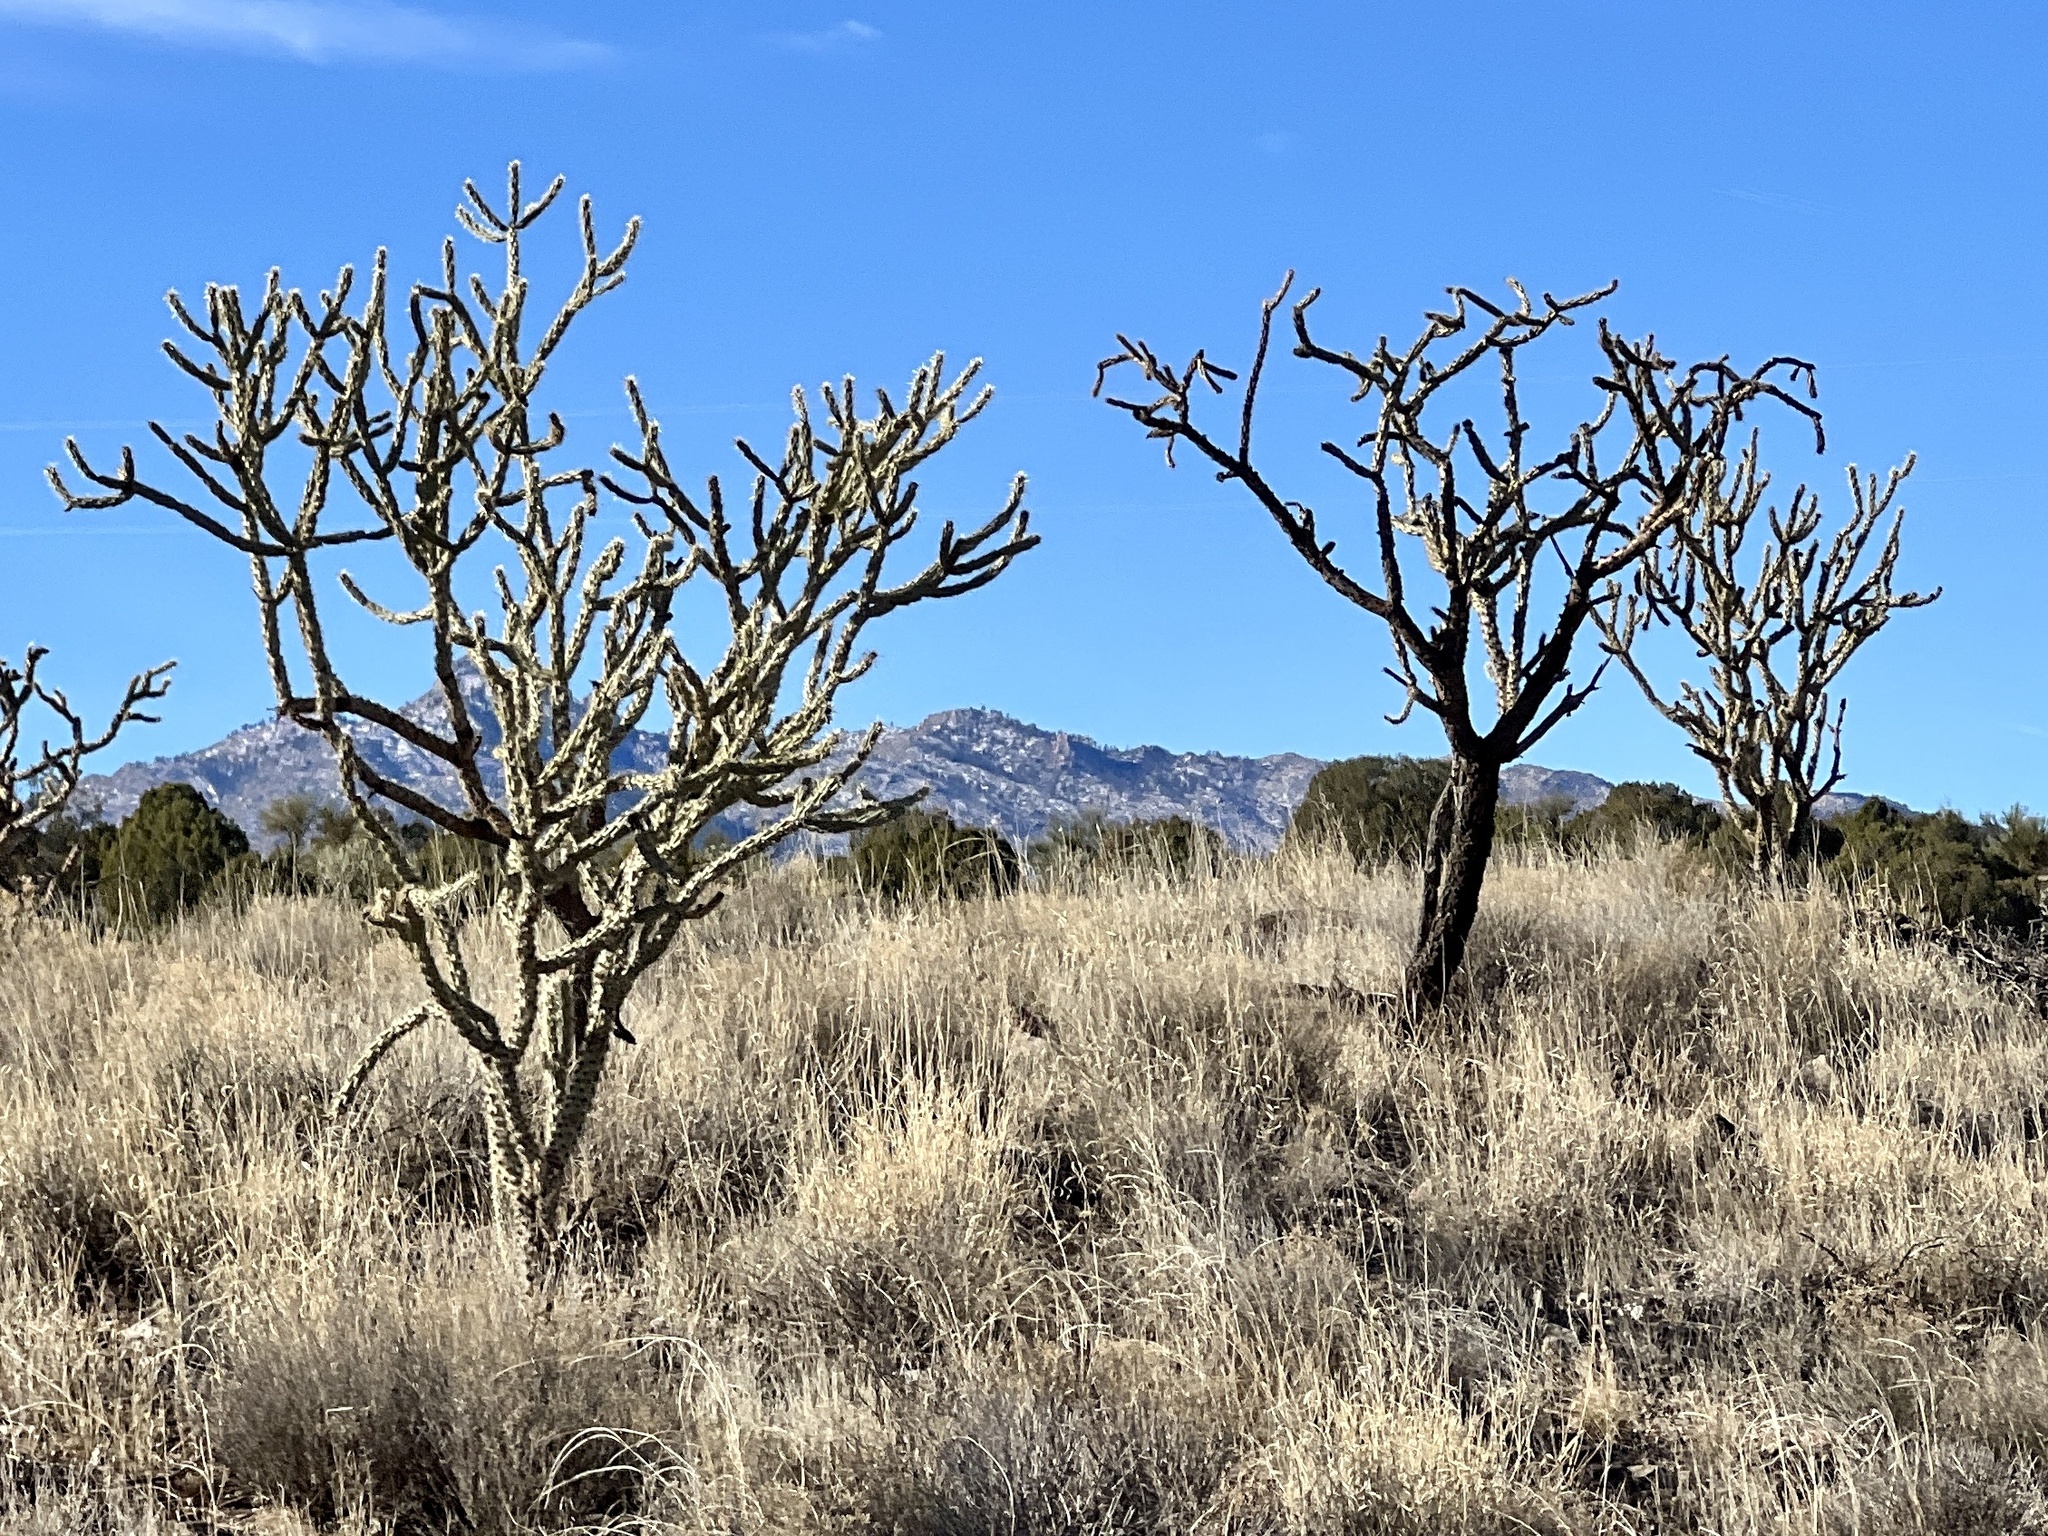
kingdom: Plantae
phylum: Tracheophyta
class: Magnoliopsida
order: Caryophyllales
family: Cactaceae
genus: Cylindropuntia
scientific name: Cylindropuntia acanthocarpa
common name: Buckhorn cholla
